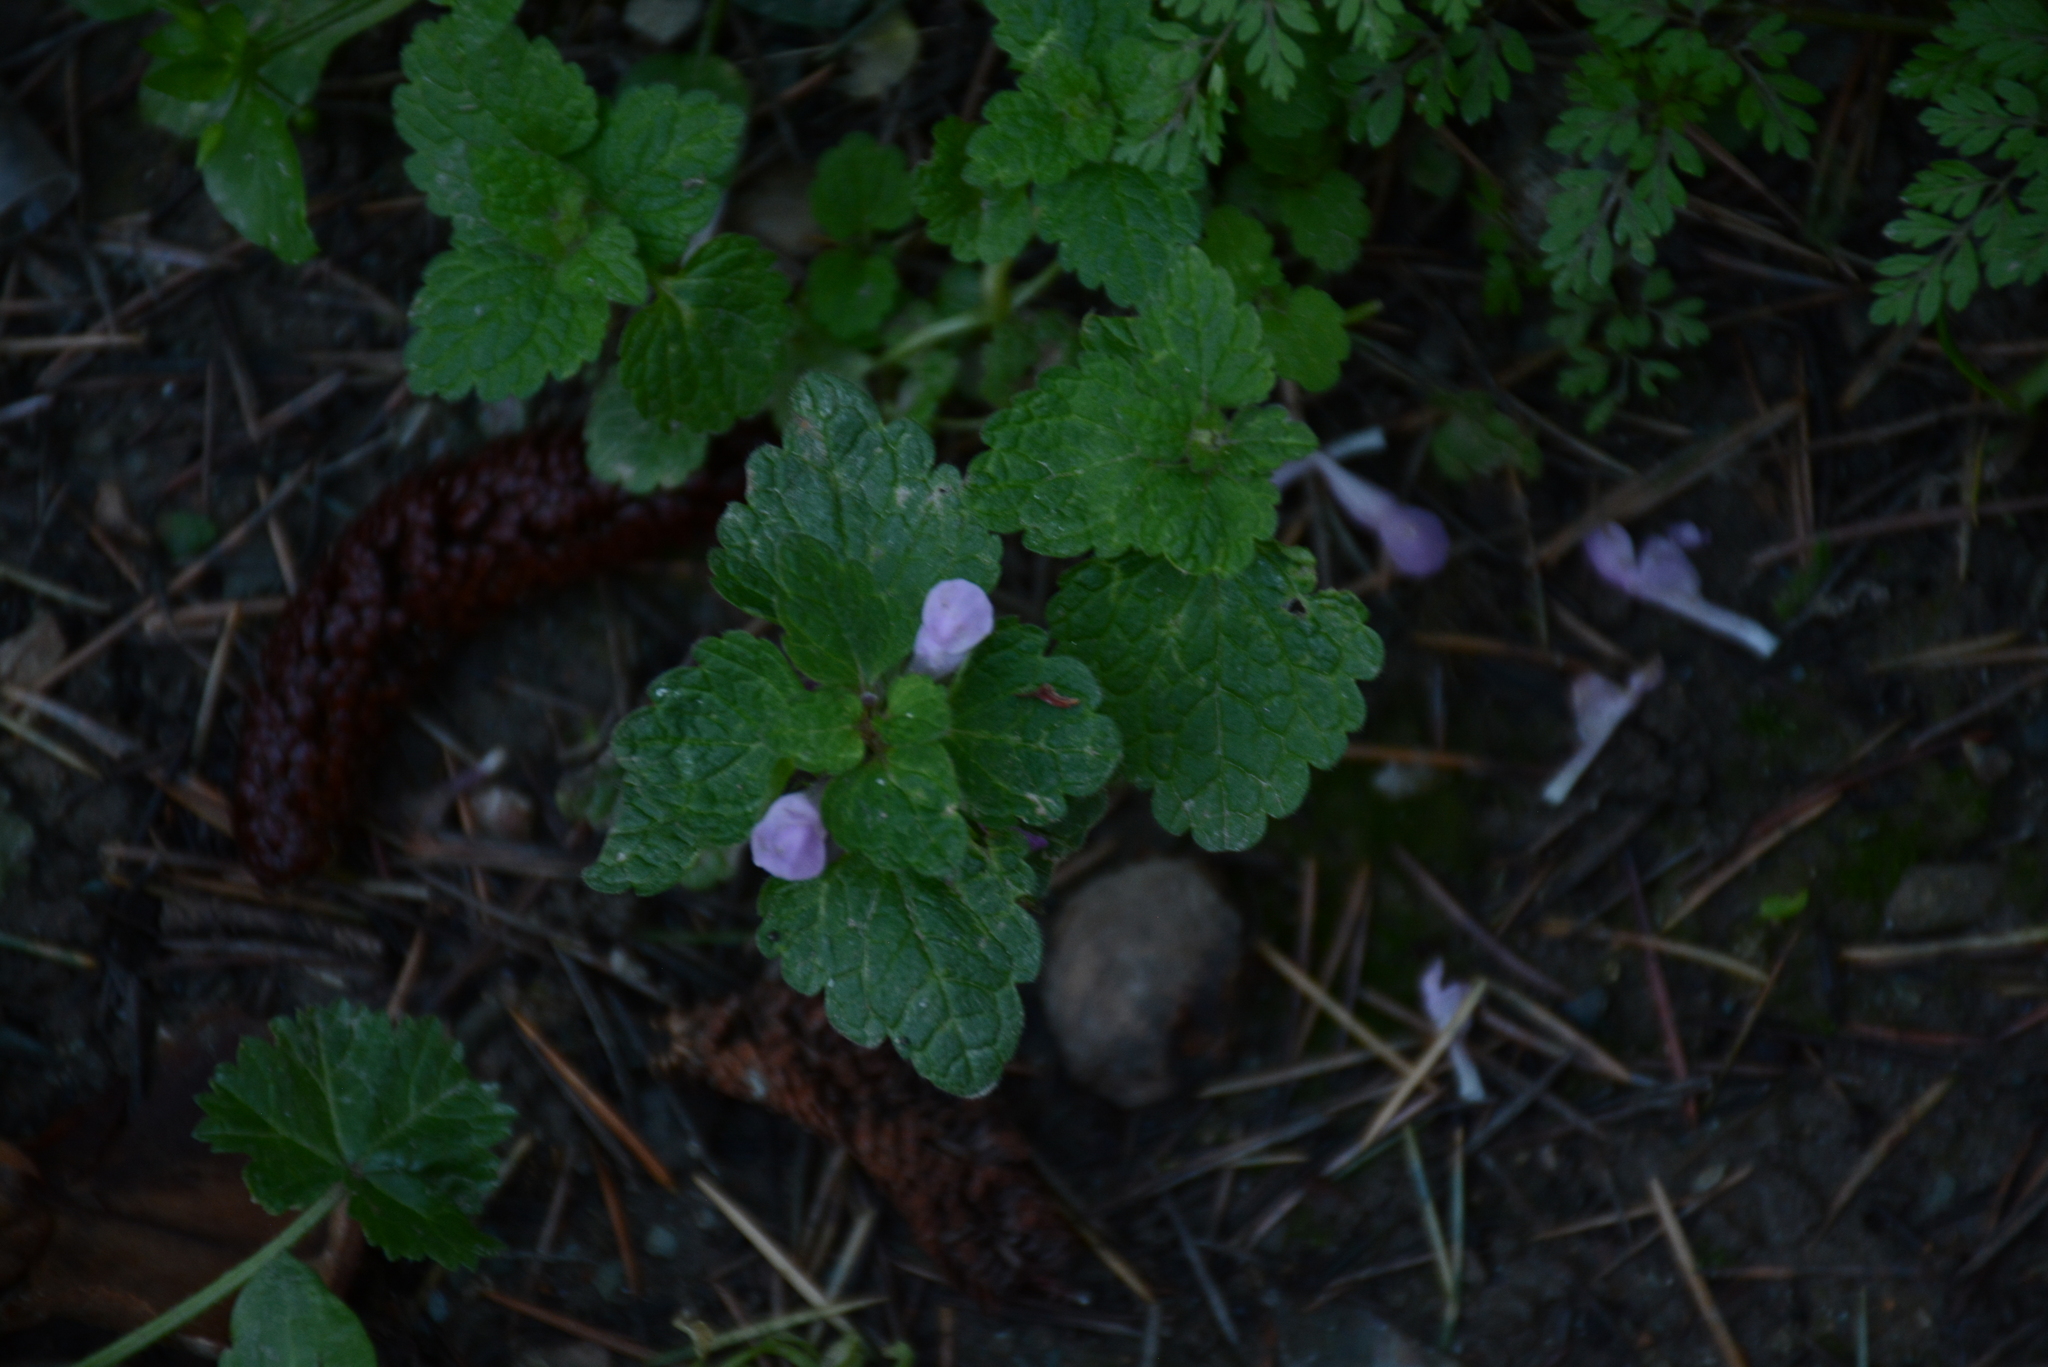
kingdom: Plantae
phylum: Tracheophyta
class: Magnoliopsida
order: Lamiales
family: Lamiaceae
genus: Lamium
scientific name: Lamium purpureum
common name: Red dead-nettle
